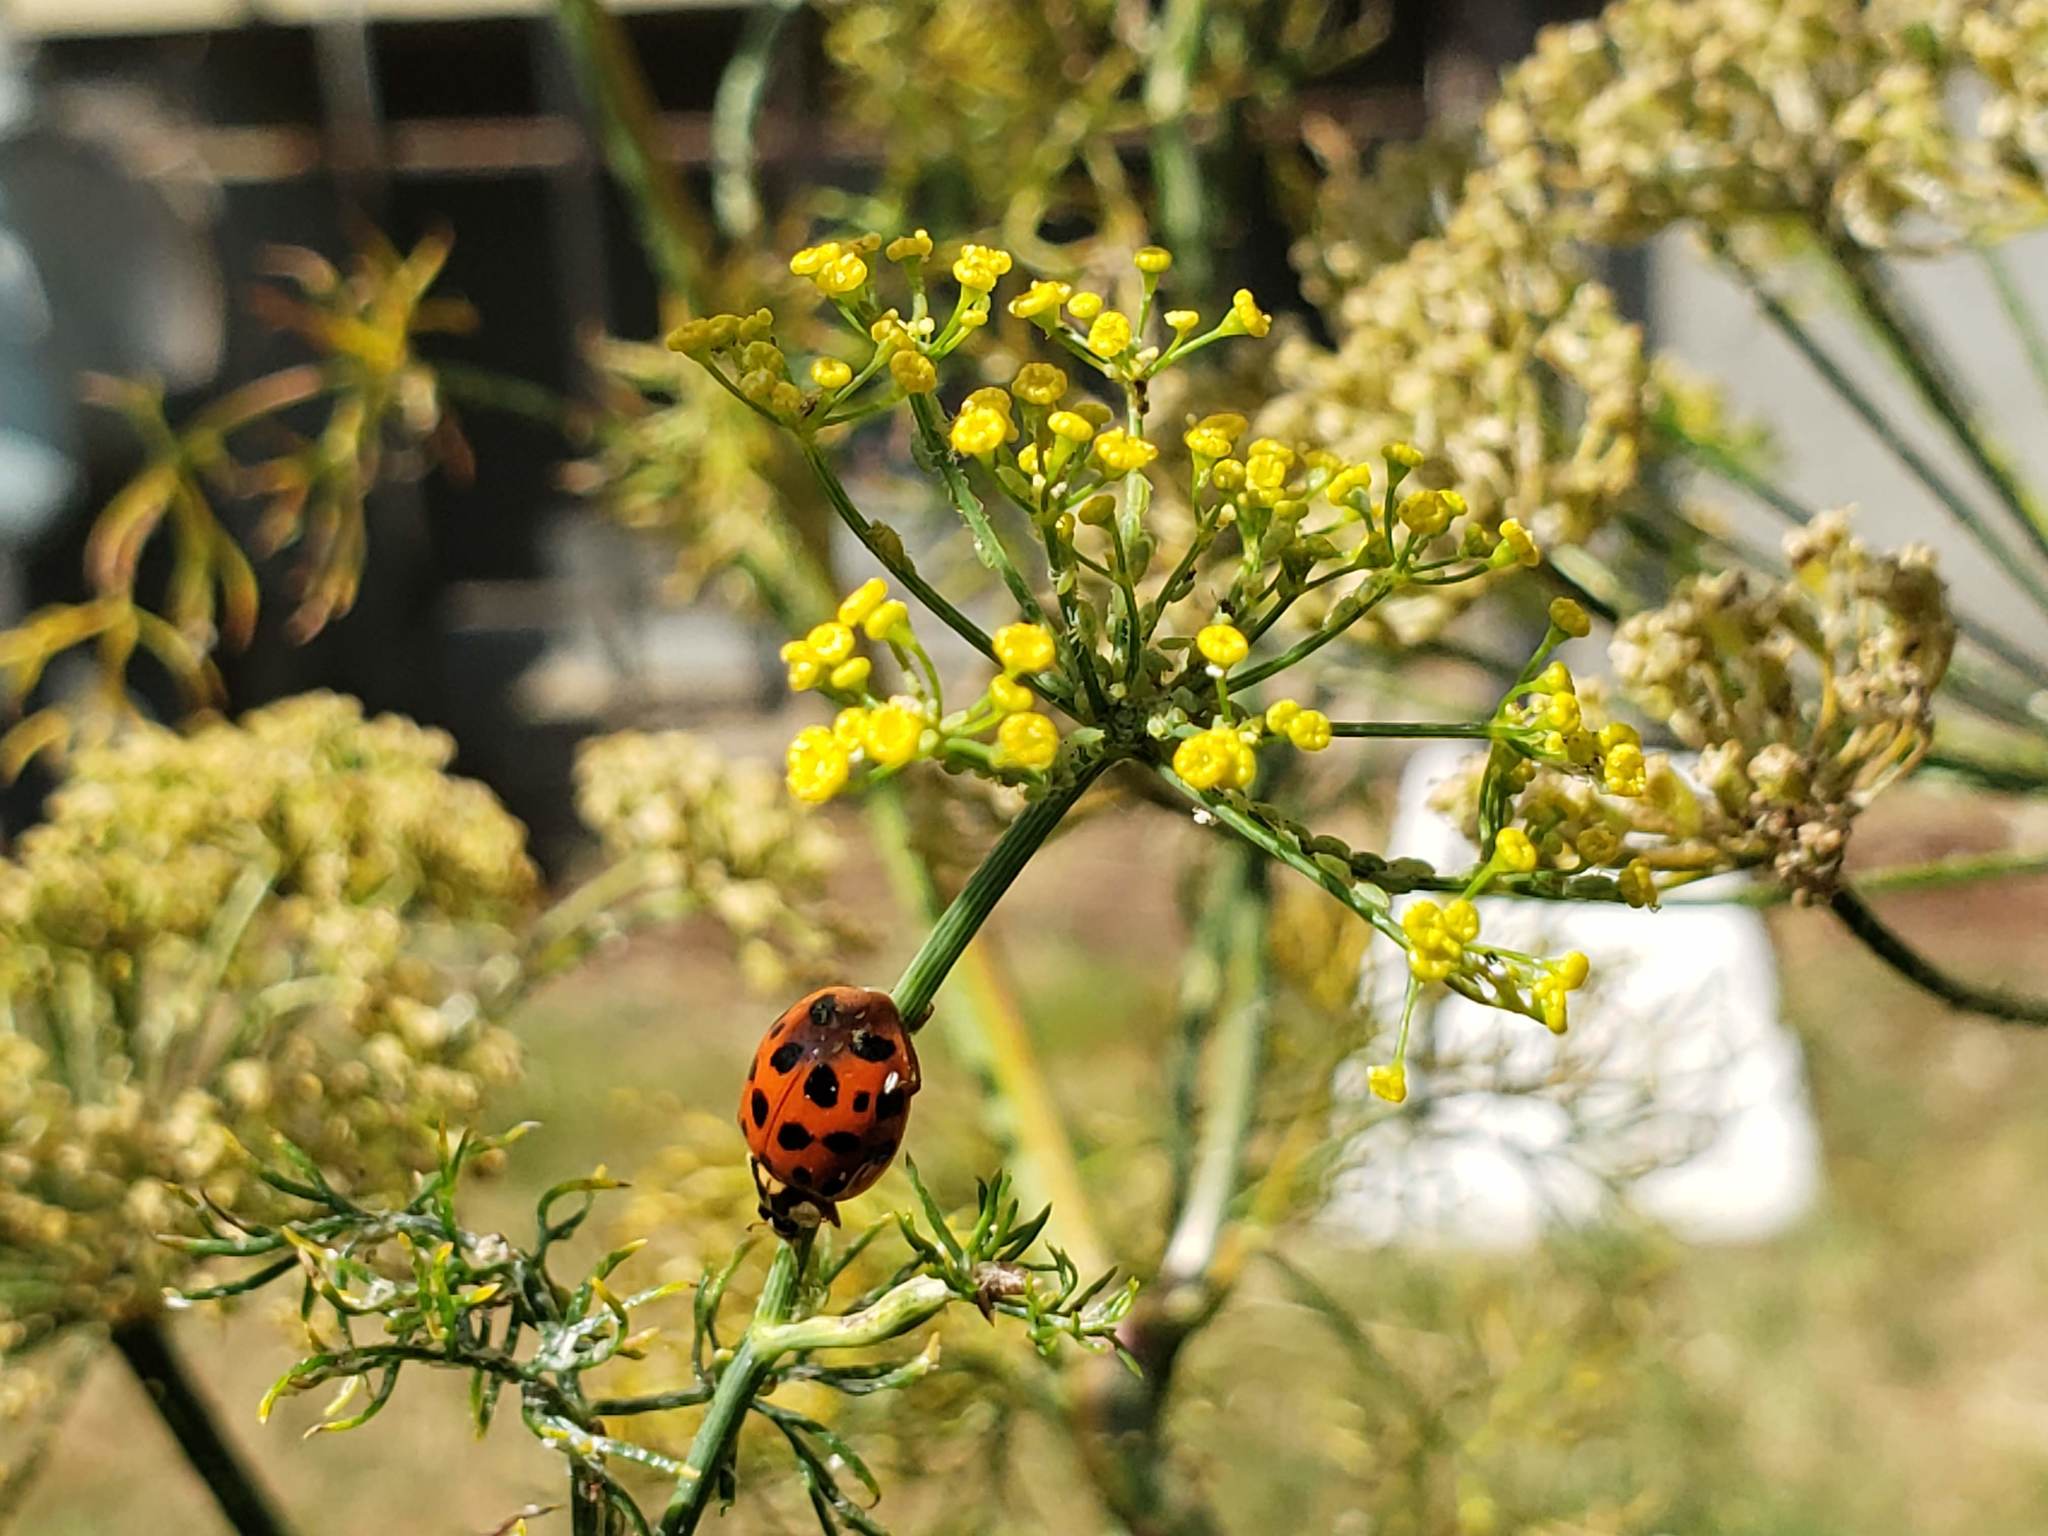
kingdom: Animalia
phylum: Arthropoda
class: Insecta
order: Coleoptera
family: Coccinellidae
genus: Harmonia
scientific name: Harmonia axyridis
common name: Harlequin ladybird
